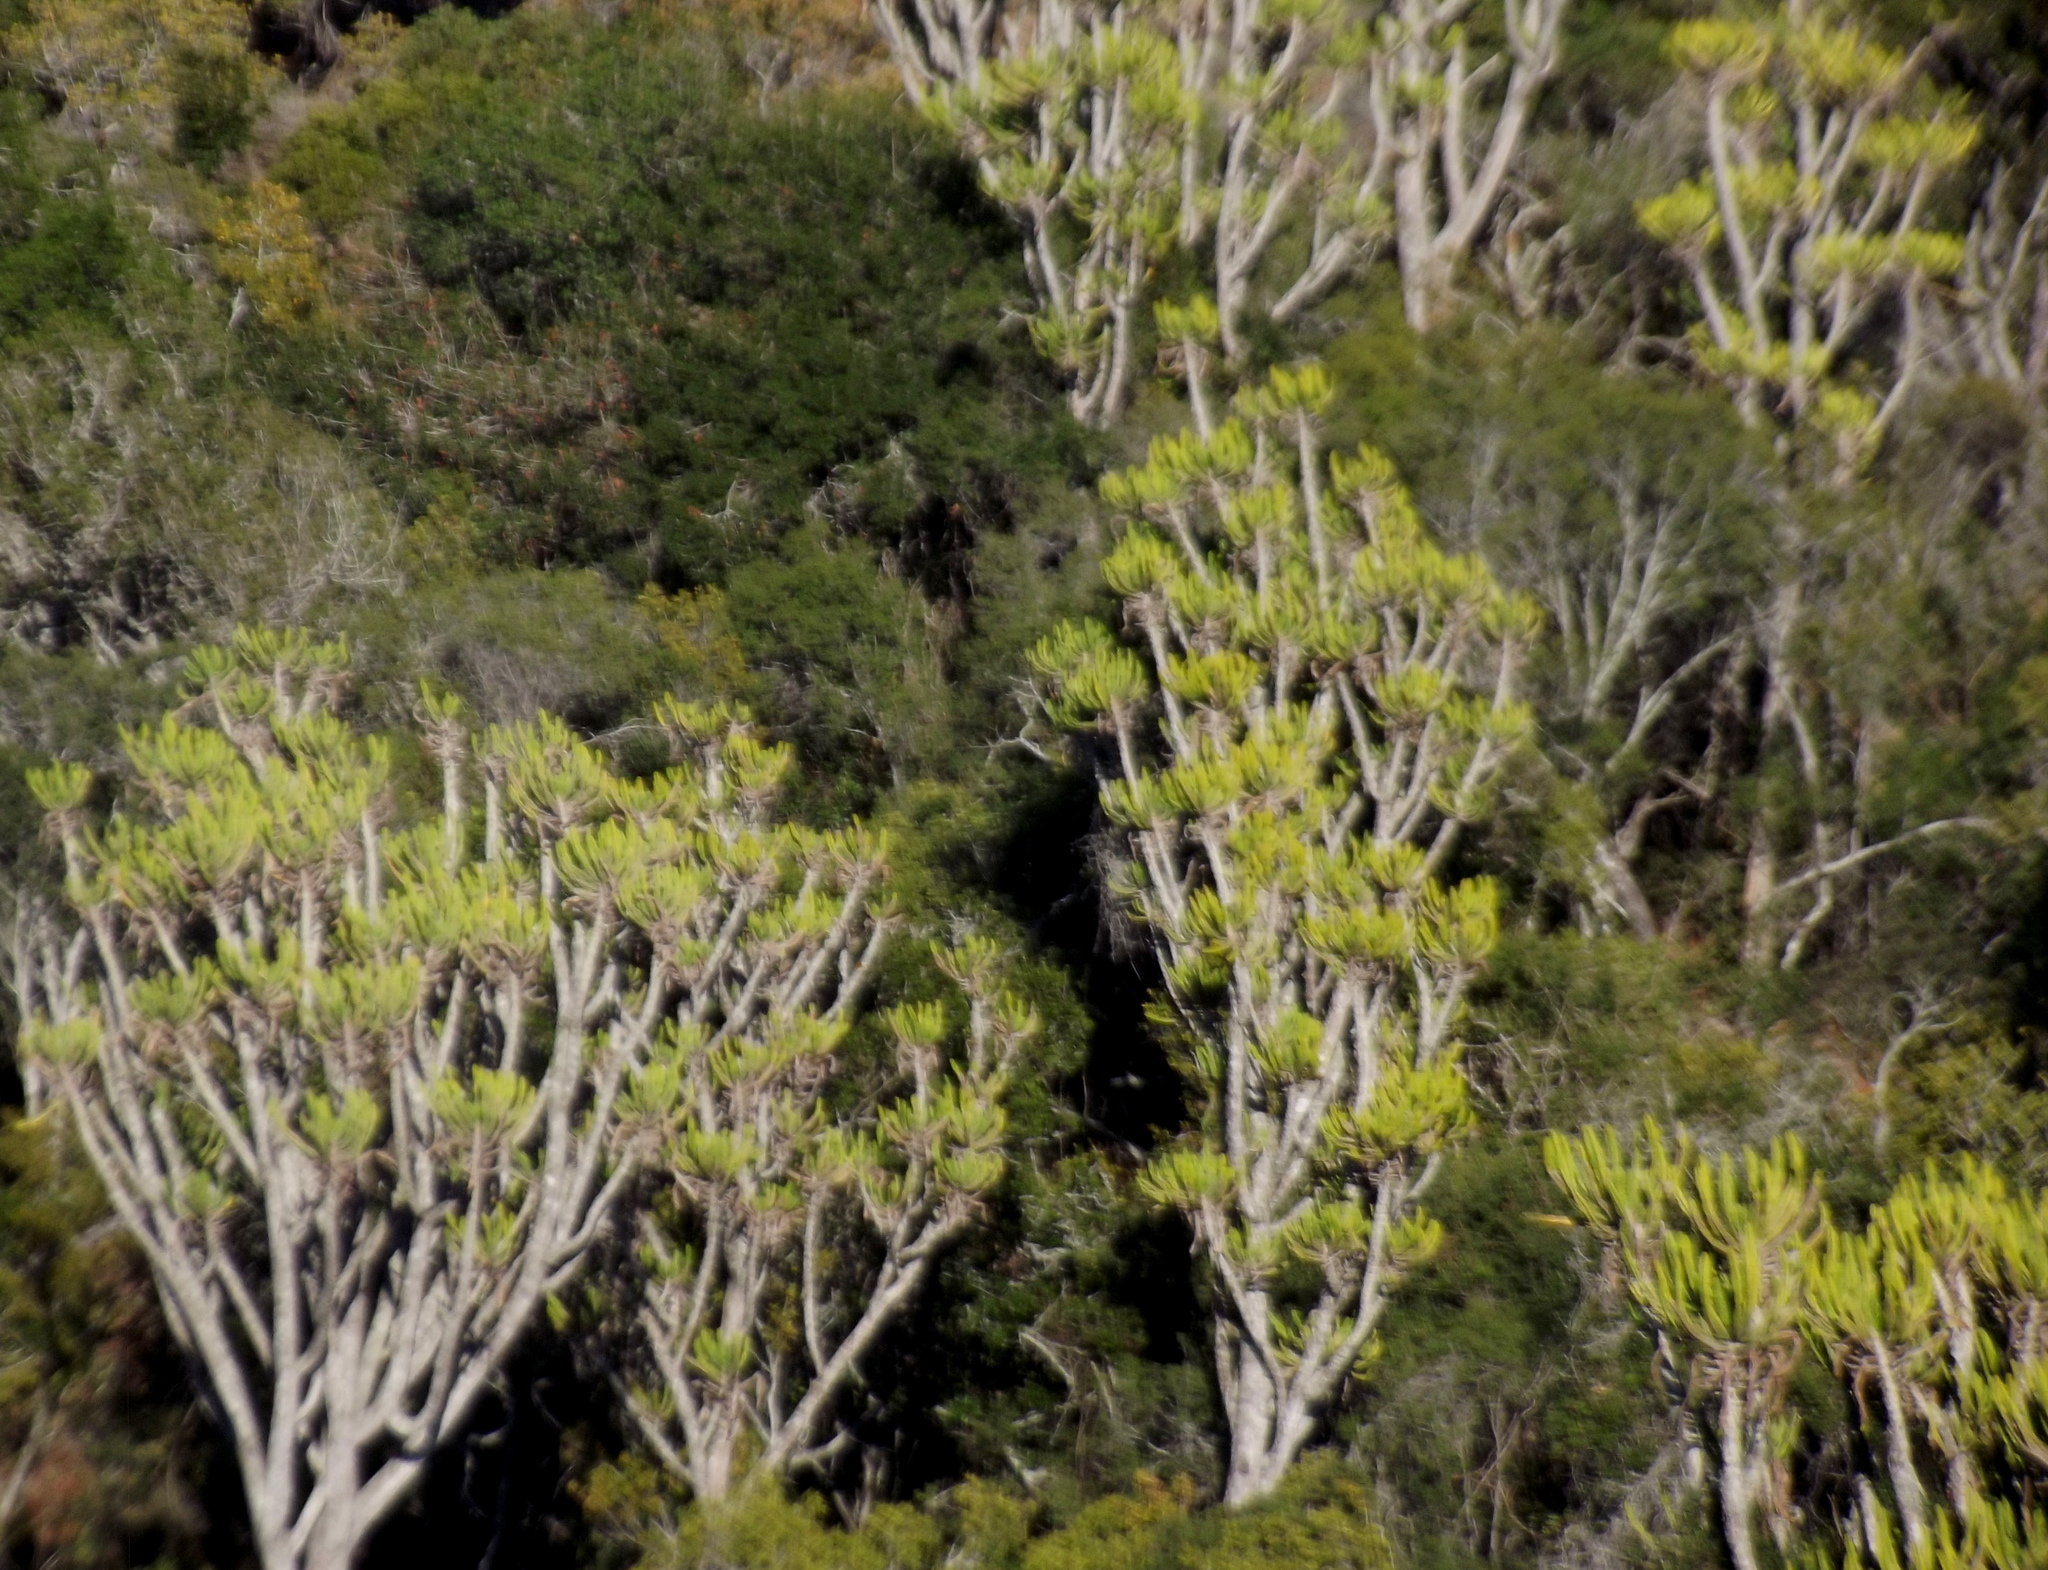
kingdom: Plantae
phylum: Tracheophyta
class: Magnoliopsida
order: Malpighiales
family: Euphorbiaceae
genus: Euphorbia
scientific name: Euphorbia triangularis
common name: Chandelier tree
